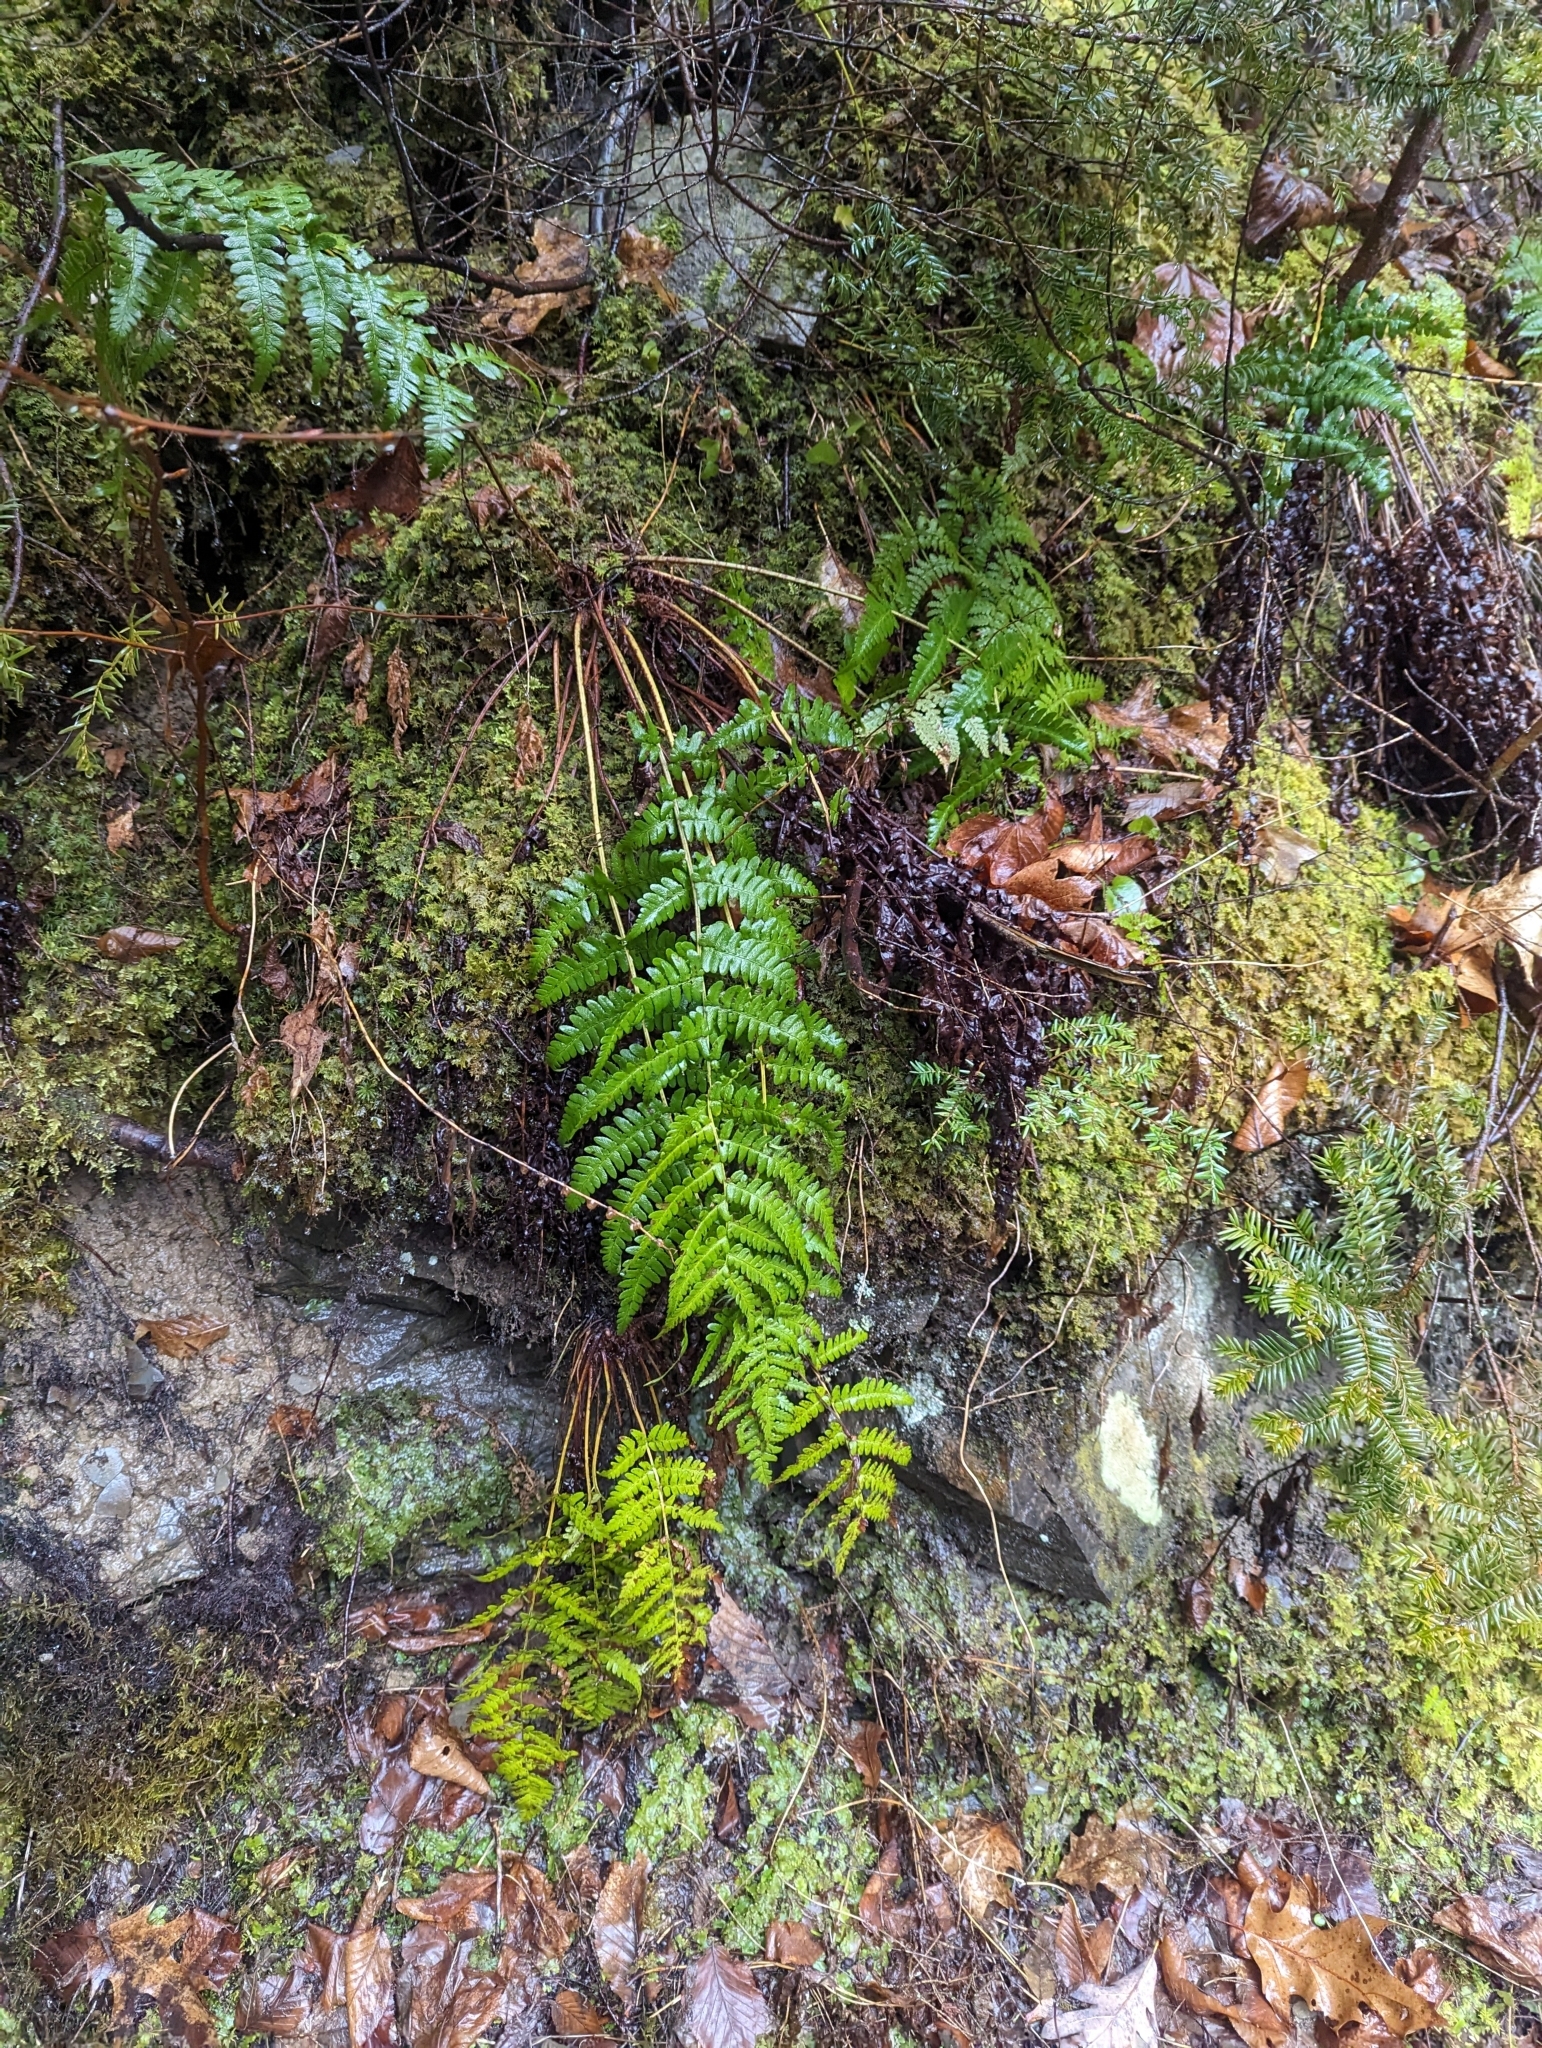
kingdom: Plantae
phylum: Tracheophyta
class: Polypodiopsida
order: Polypodiales
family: Dryopteridaceae
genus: Dryopteris
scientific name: Dryopteris marginalis
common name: Marginal wood fern
